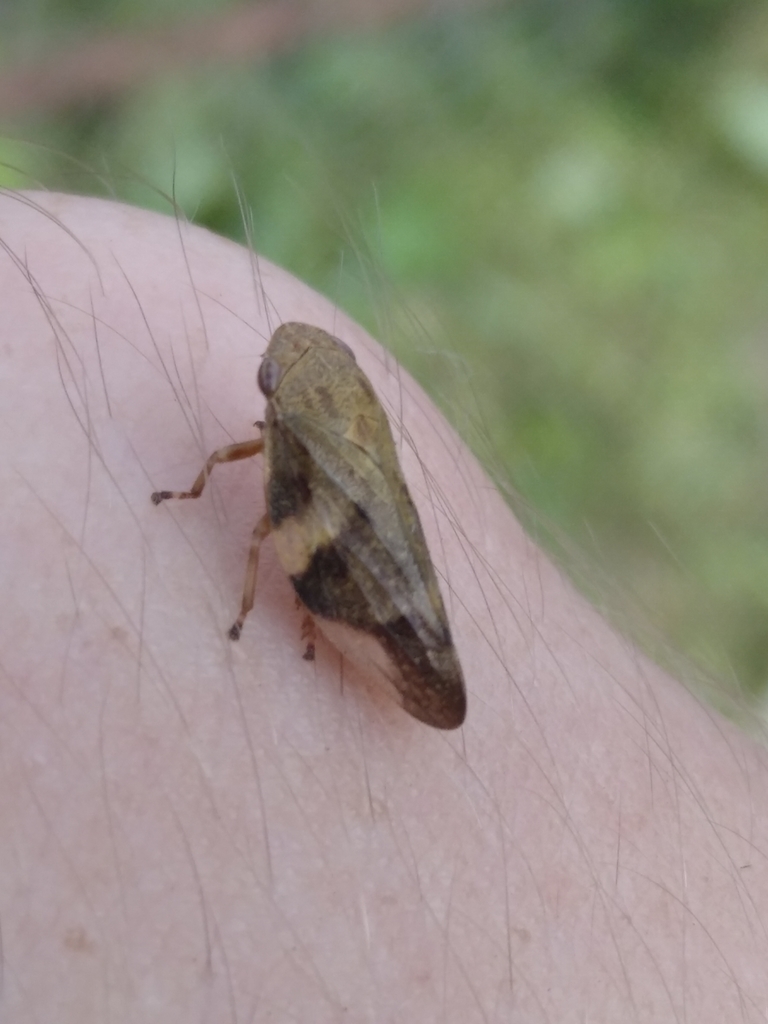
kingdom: Animalia
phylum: Arthropoda
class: Insecta
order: Hemiptera
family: Aphrophoridae
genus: Aphrophora
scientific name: Aphrophora alni
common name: European alder spittlebug
